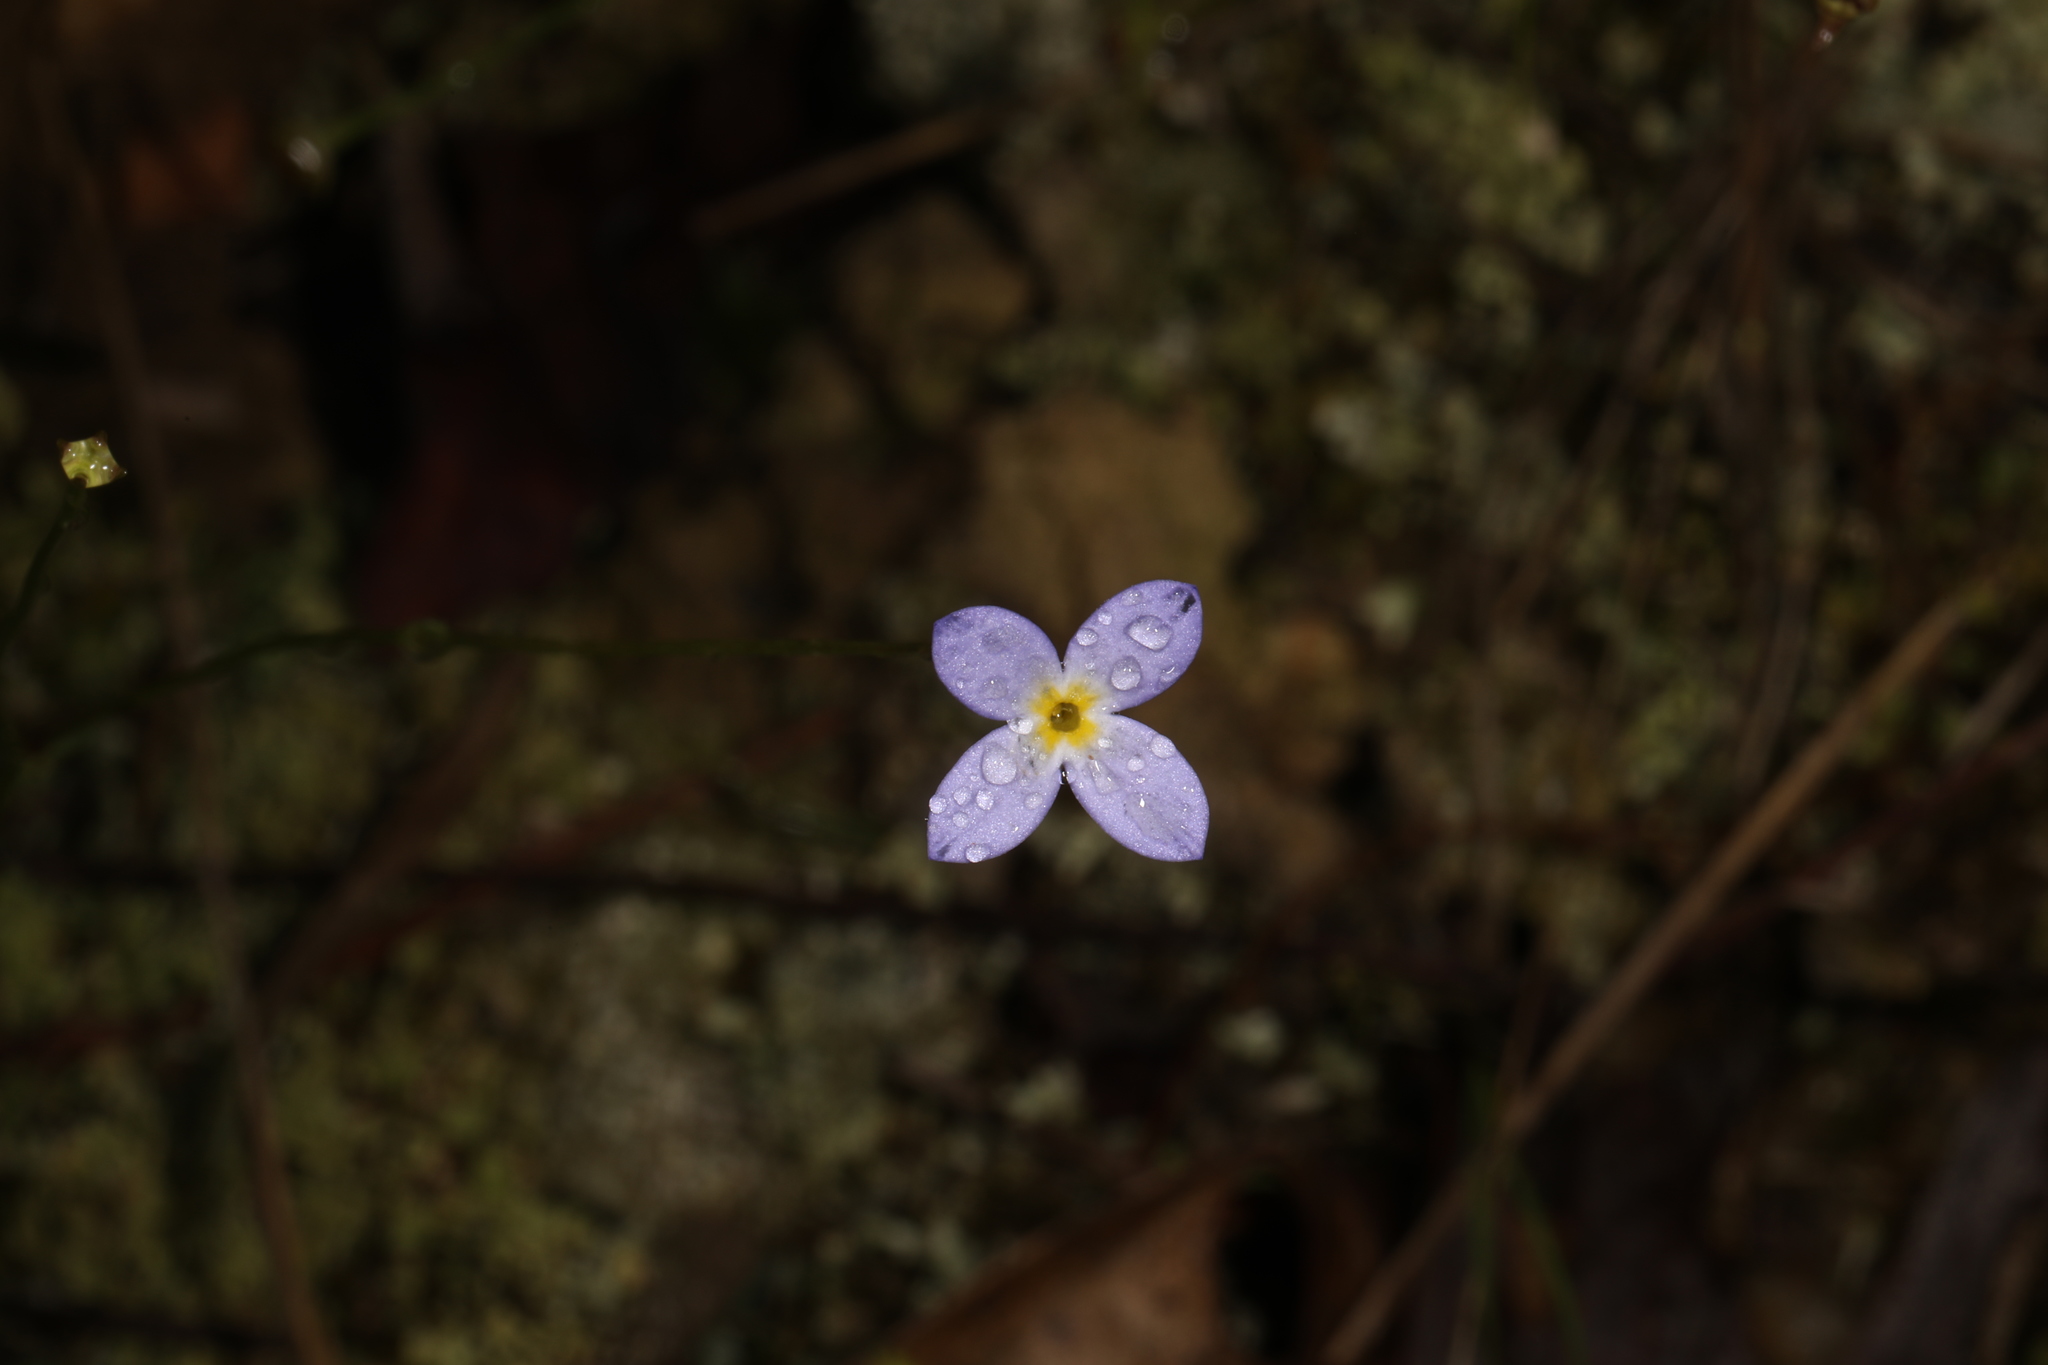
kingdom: Plantae
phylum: Tracheophyta
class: Magnoliopsida
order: Gentianales
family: Rubiaceae
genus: Houstonia
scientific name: Houstonia caerulea
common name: Bluets
